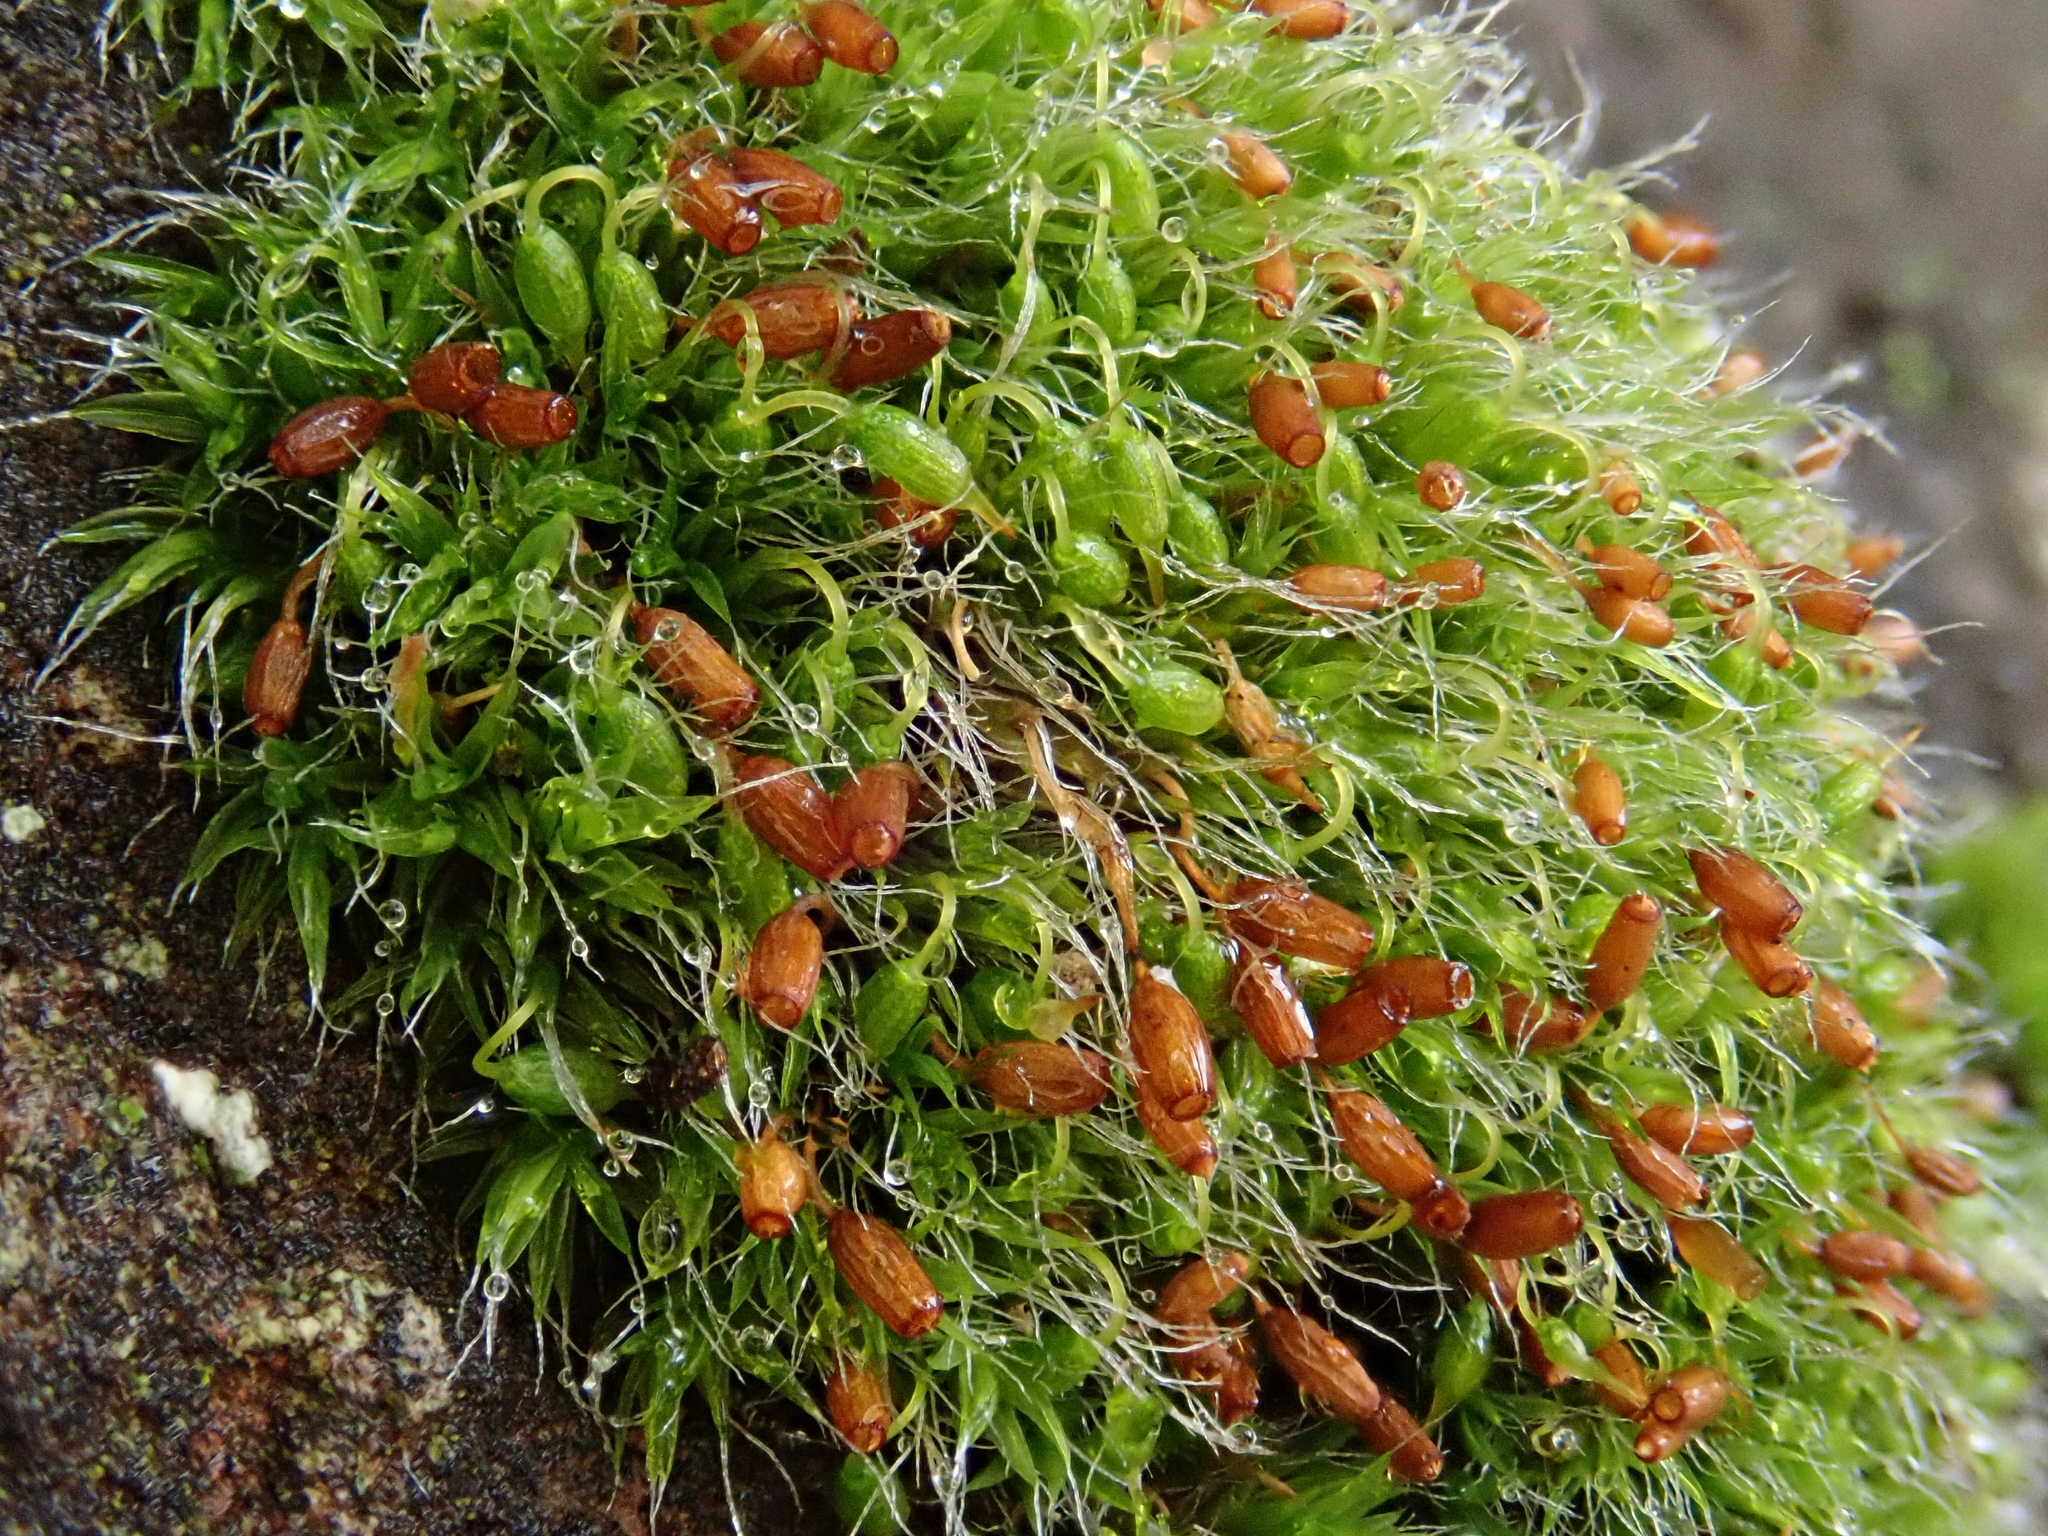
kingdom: Plantae
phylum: Bryophyta
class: Bryopsida
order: Grimmiales
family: Grimmiaceae
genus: Grimmia
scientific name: Grimmia pulvinata
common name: Grey-cushioned grimmia
